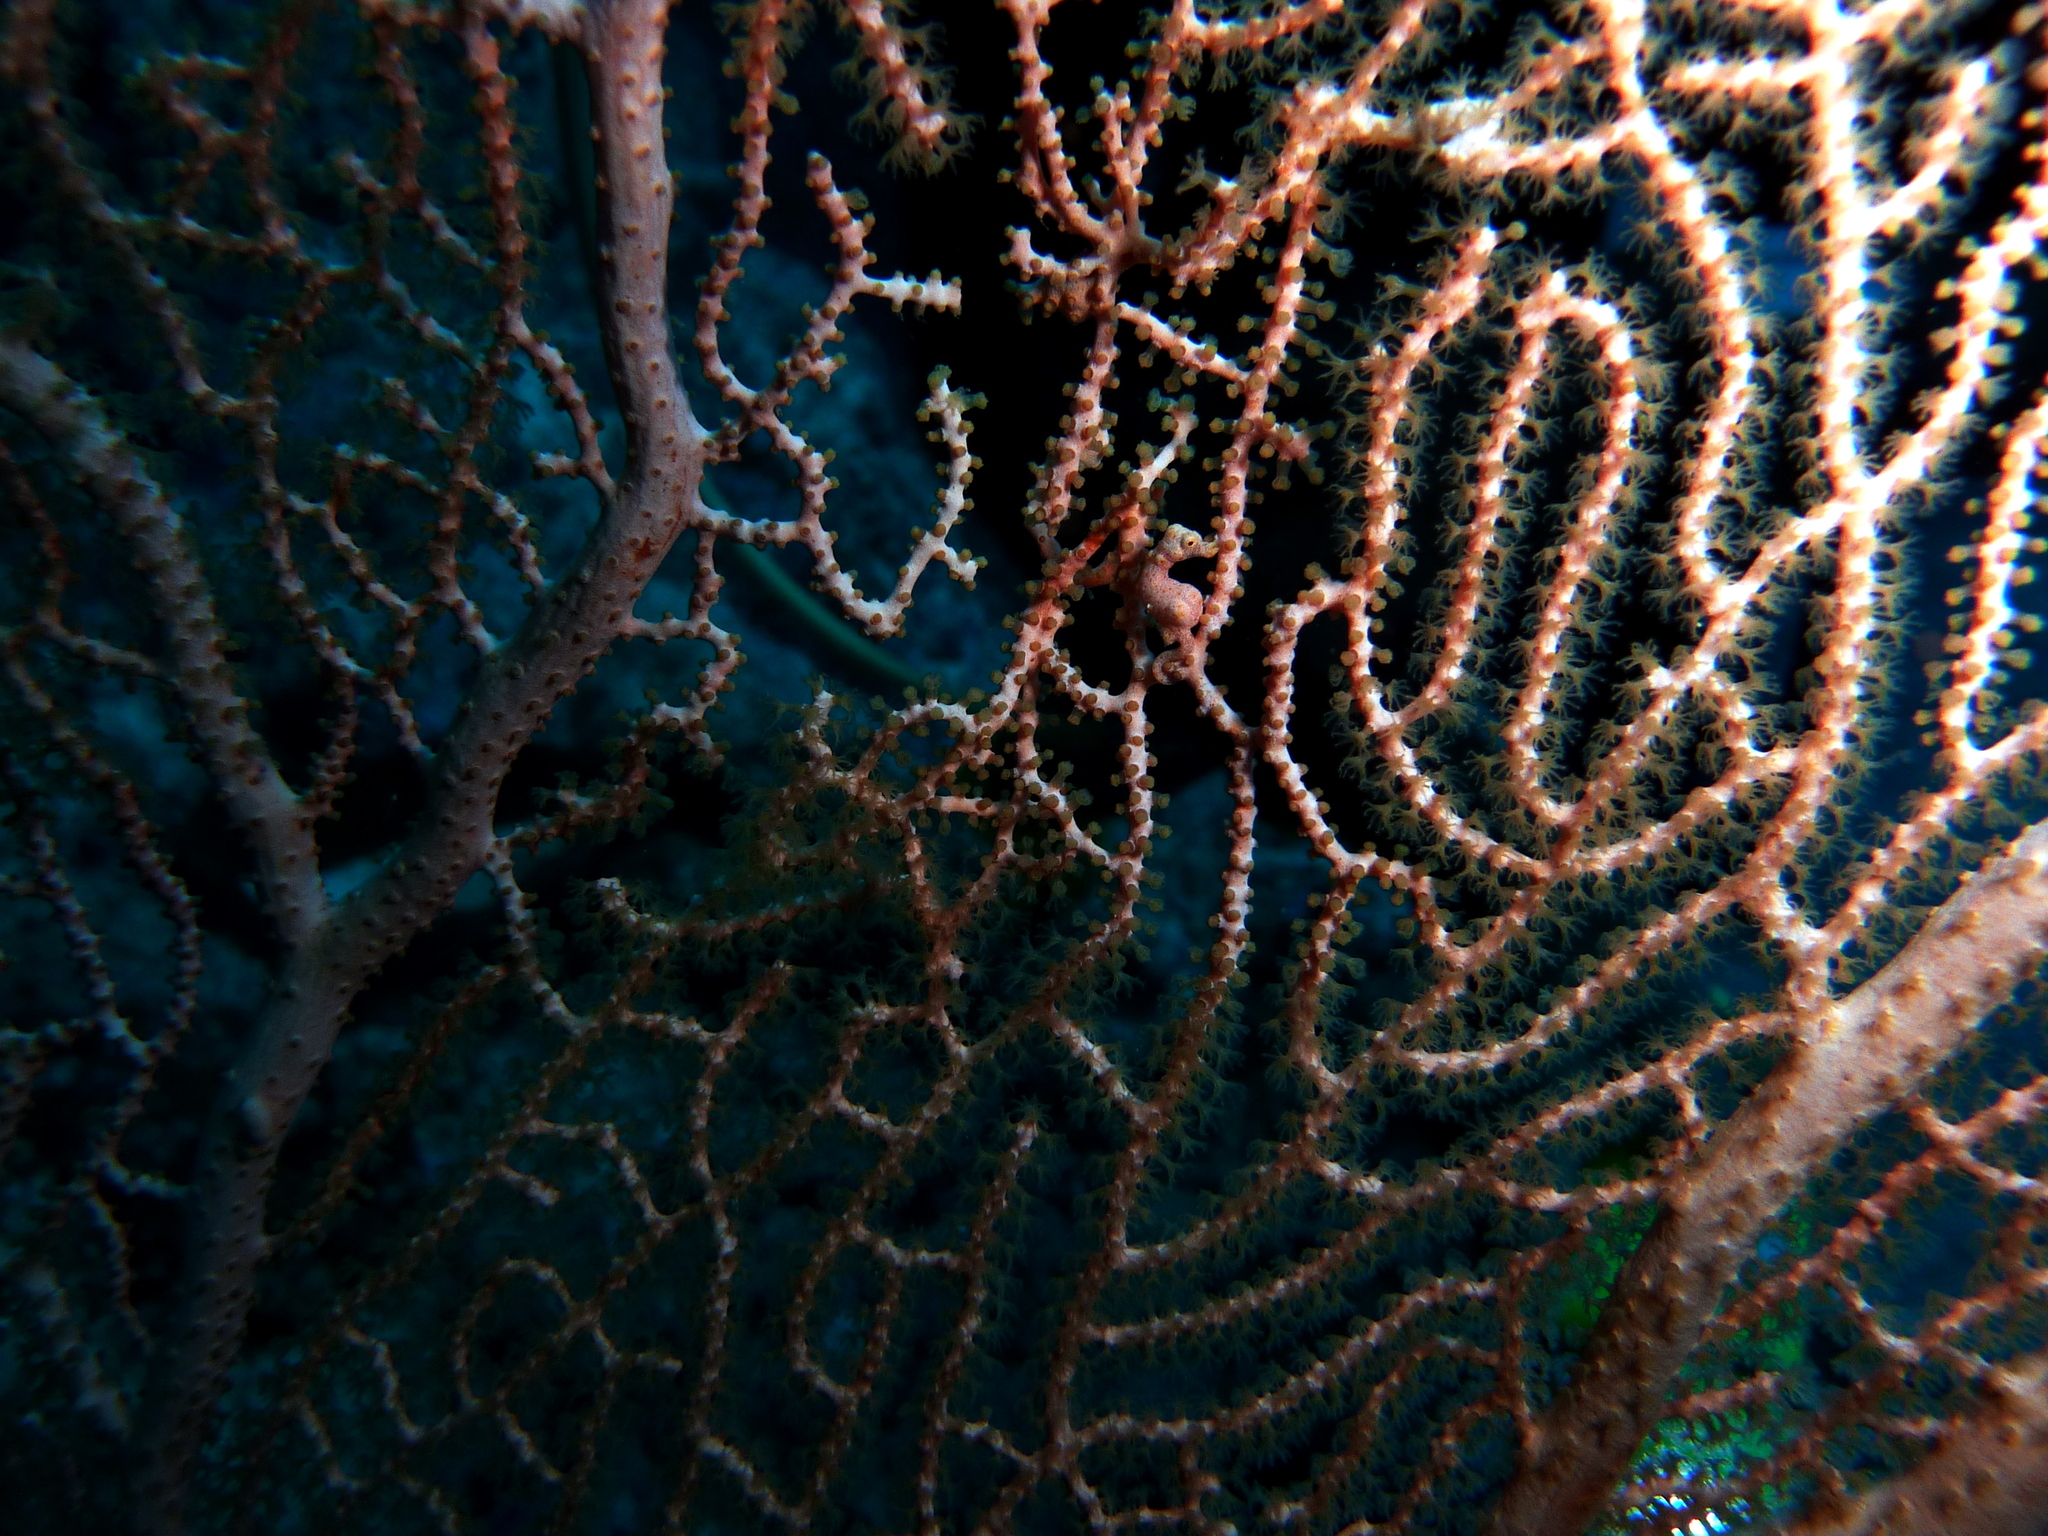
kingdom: Animalia
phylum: Chordata
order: Syngnathiformes
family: Syngnathidae
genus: Hippocampus
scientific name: Hippocampus denise
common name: Denise's pygmy seahorse
